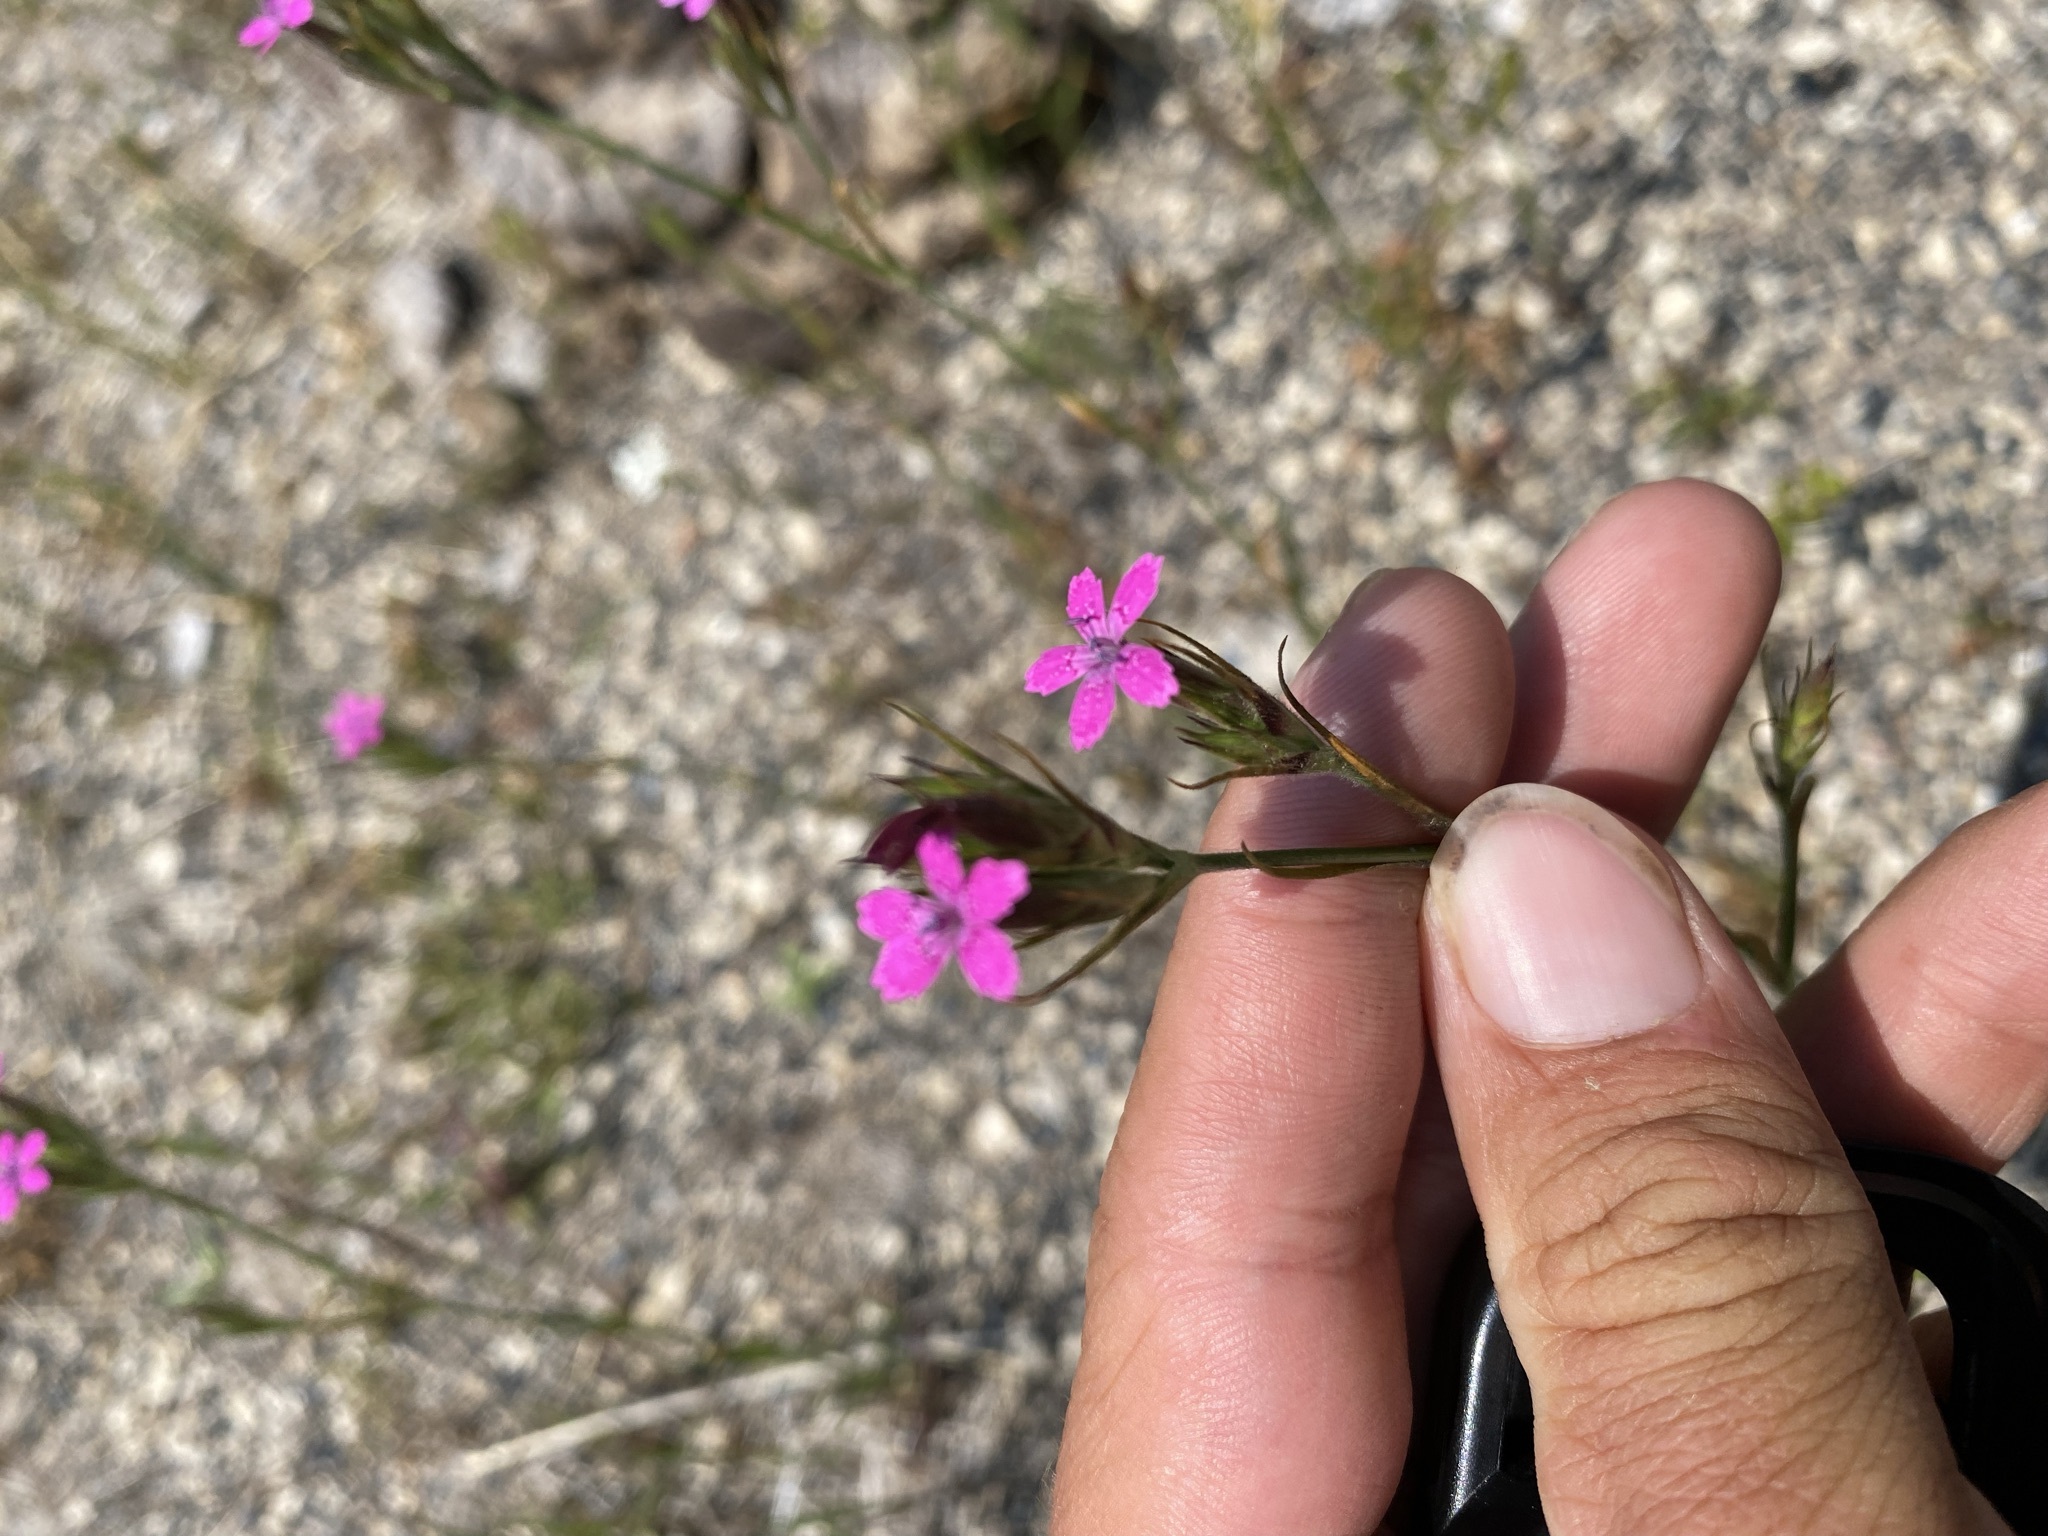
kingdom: Plantae
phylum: Tracheophyta
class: Magnoliopsida
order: Caryophyllales
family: Caryophyllaceae
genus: Dianthus
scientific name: Dianthus armeria
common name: Deptford pink
